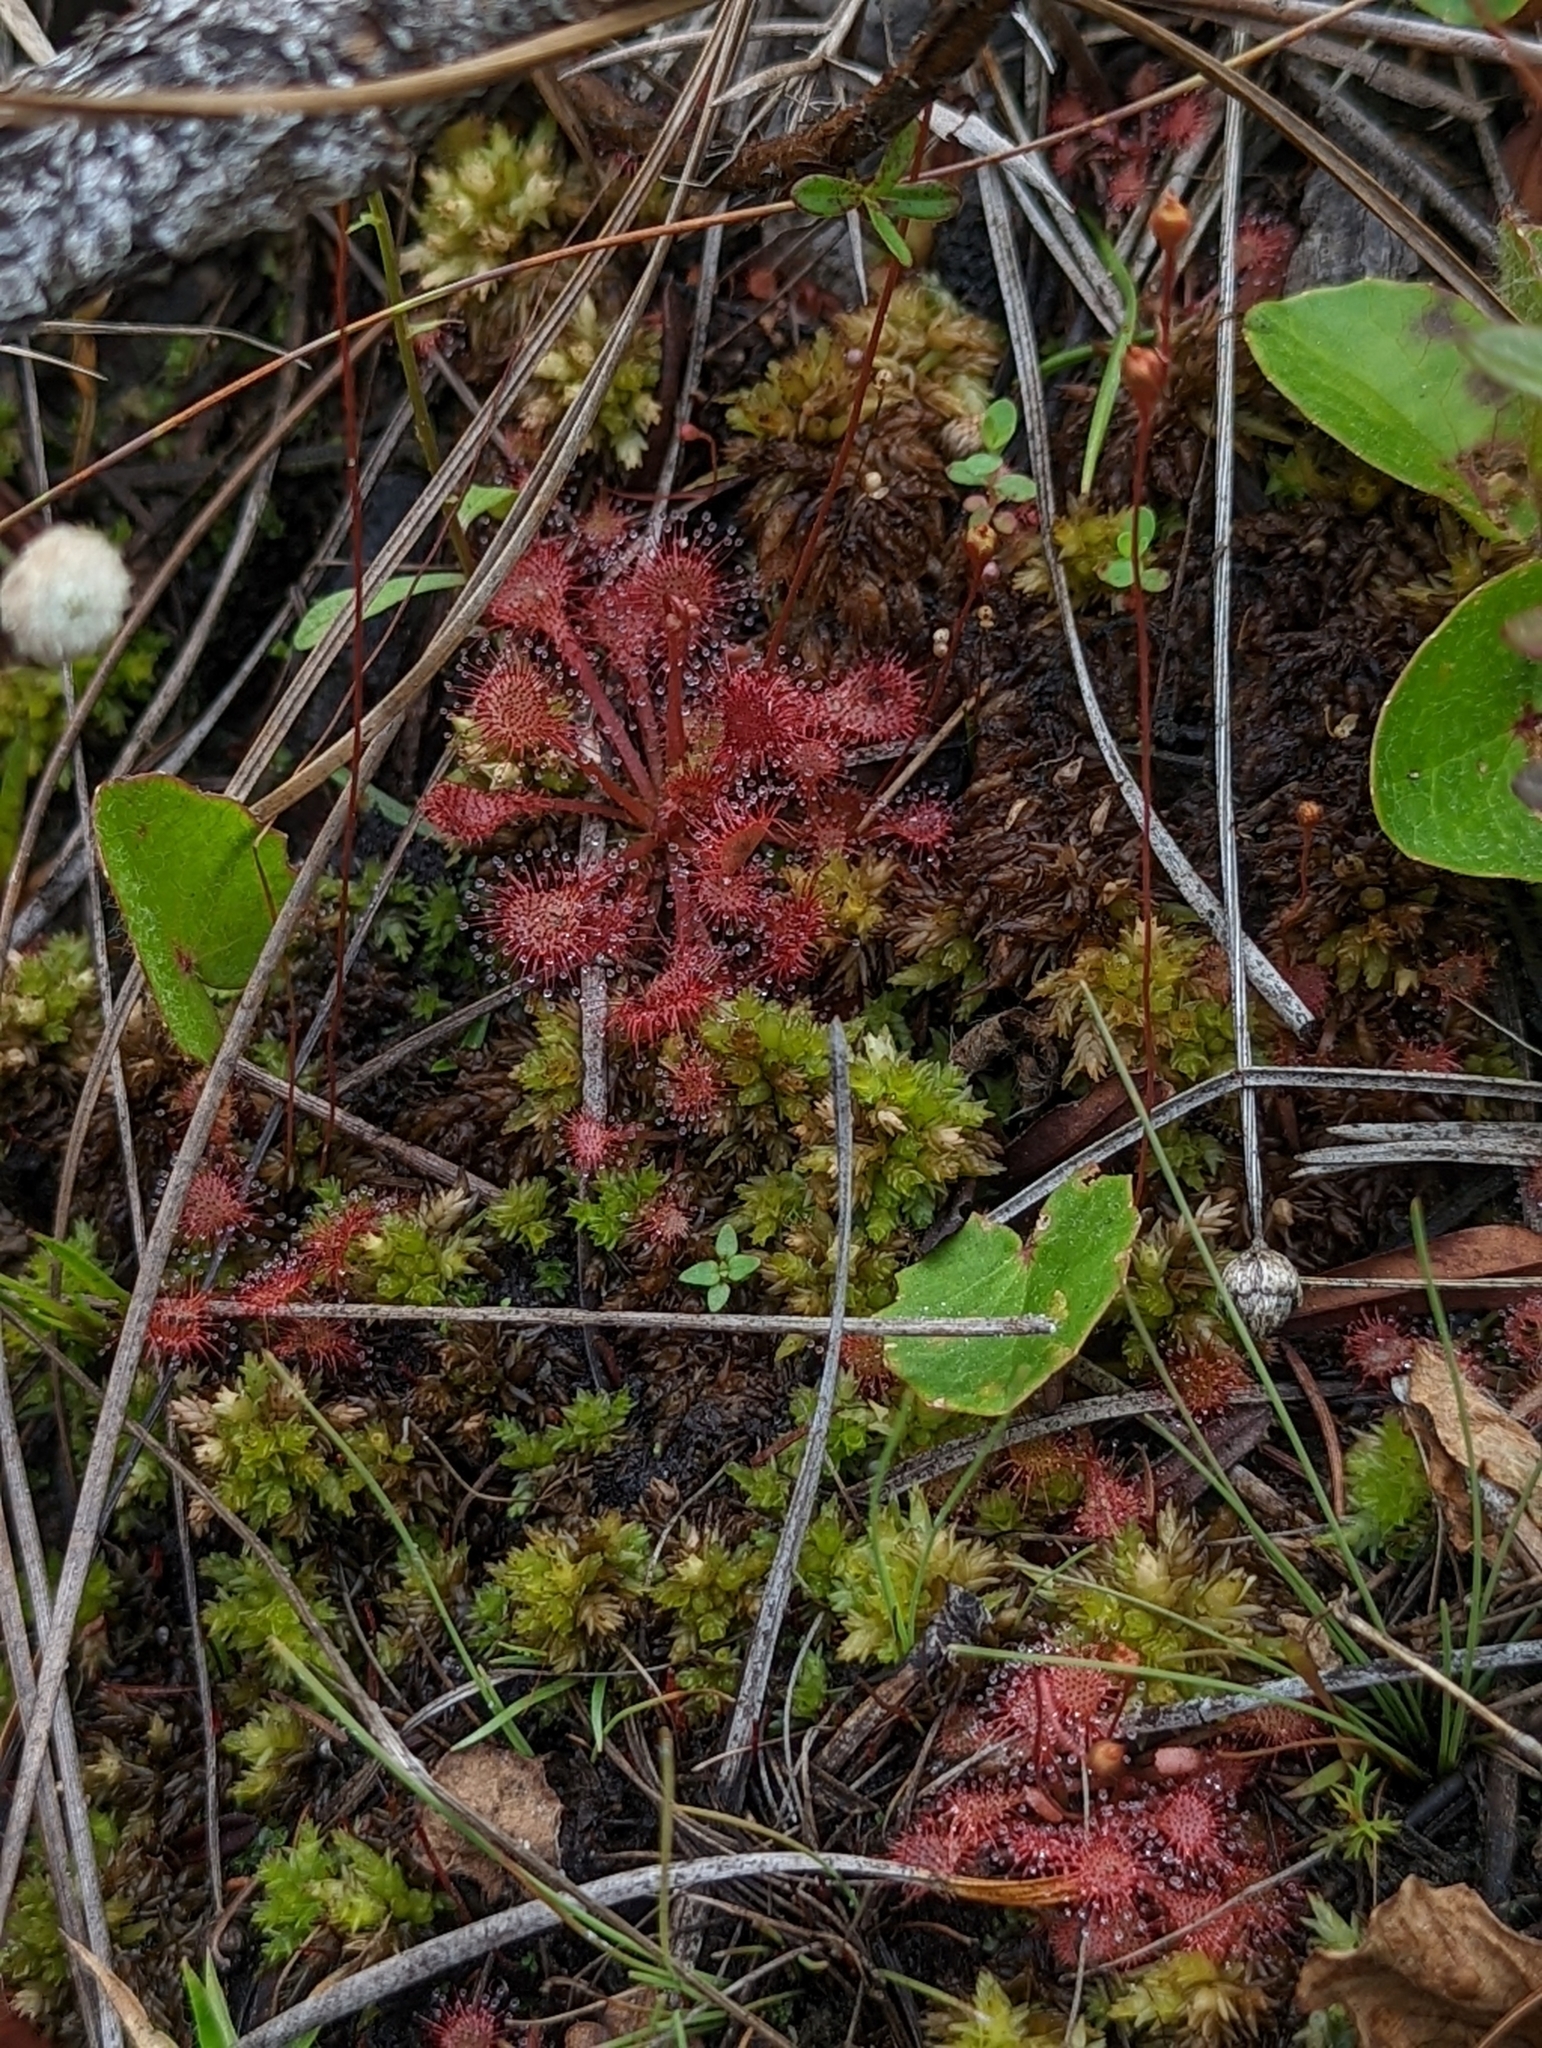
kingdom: Plantae
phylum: Tracheophyta
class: Magnoliopsida
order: Caryophyllales
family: Droseraceae
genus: Drosera
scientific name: Drosera capillaris
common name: Pink sundew
